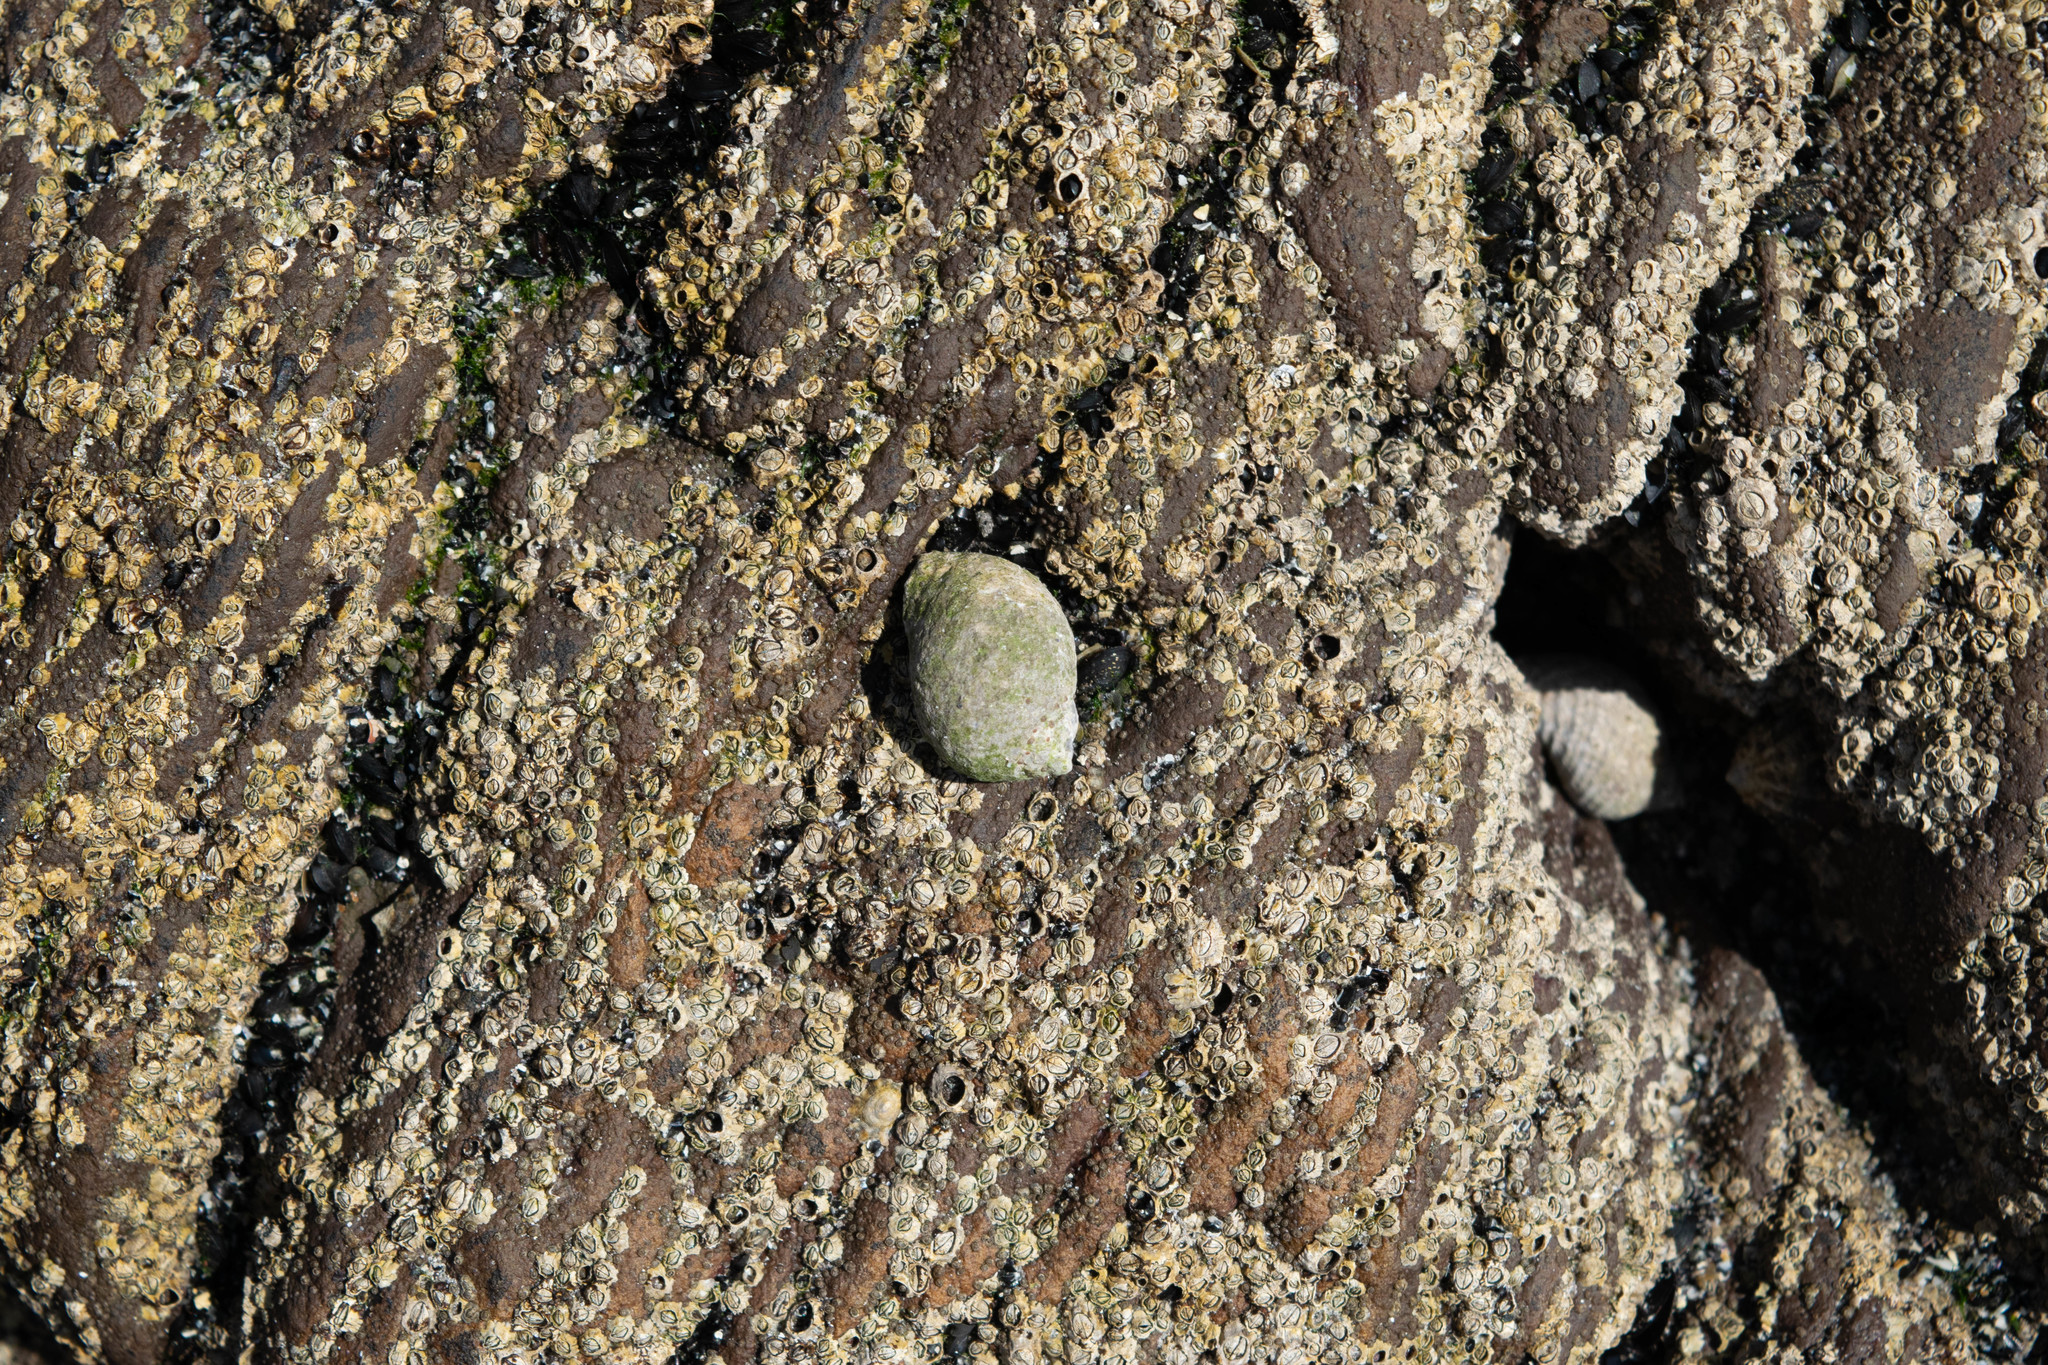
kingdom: Animalia
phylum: Mollusca
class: Gastropoda
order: Neogastropoda
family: Muricidae
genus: Nucella
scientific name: Nucella lapillus
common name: Dog whelk
